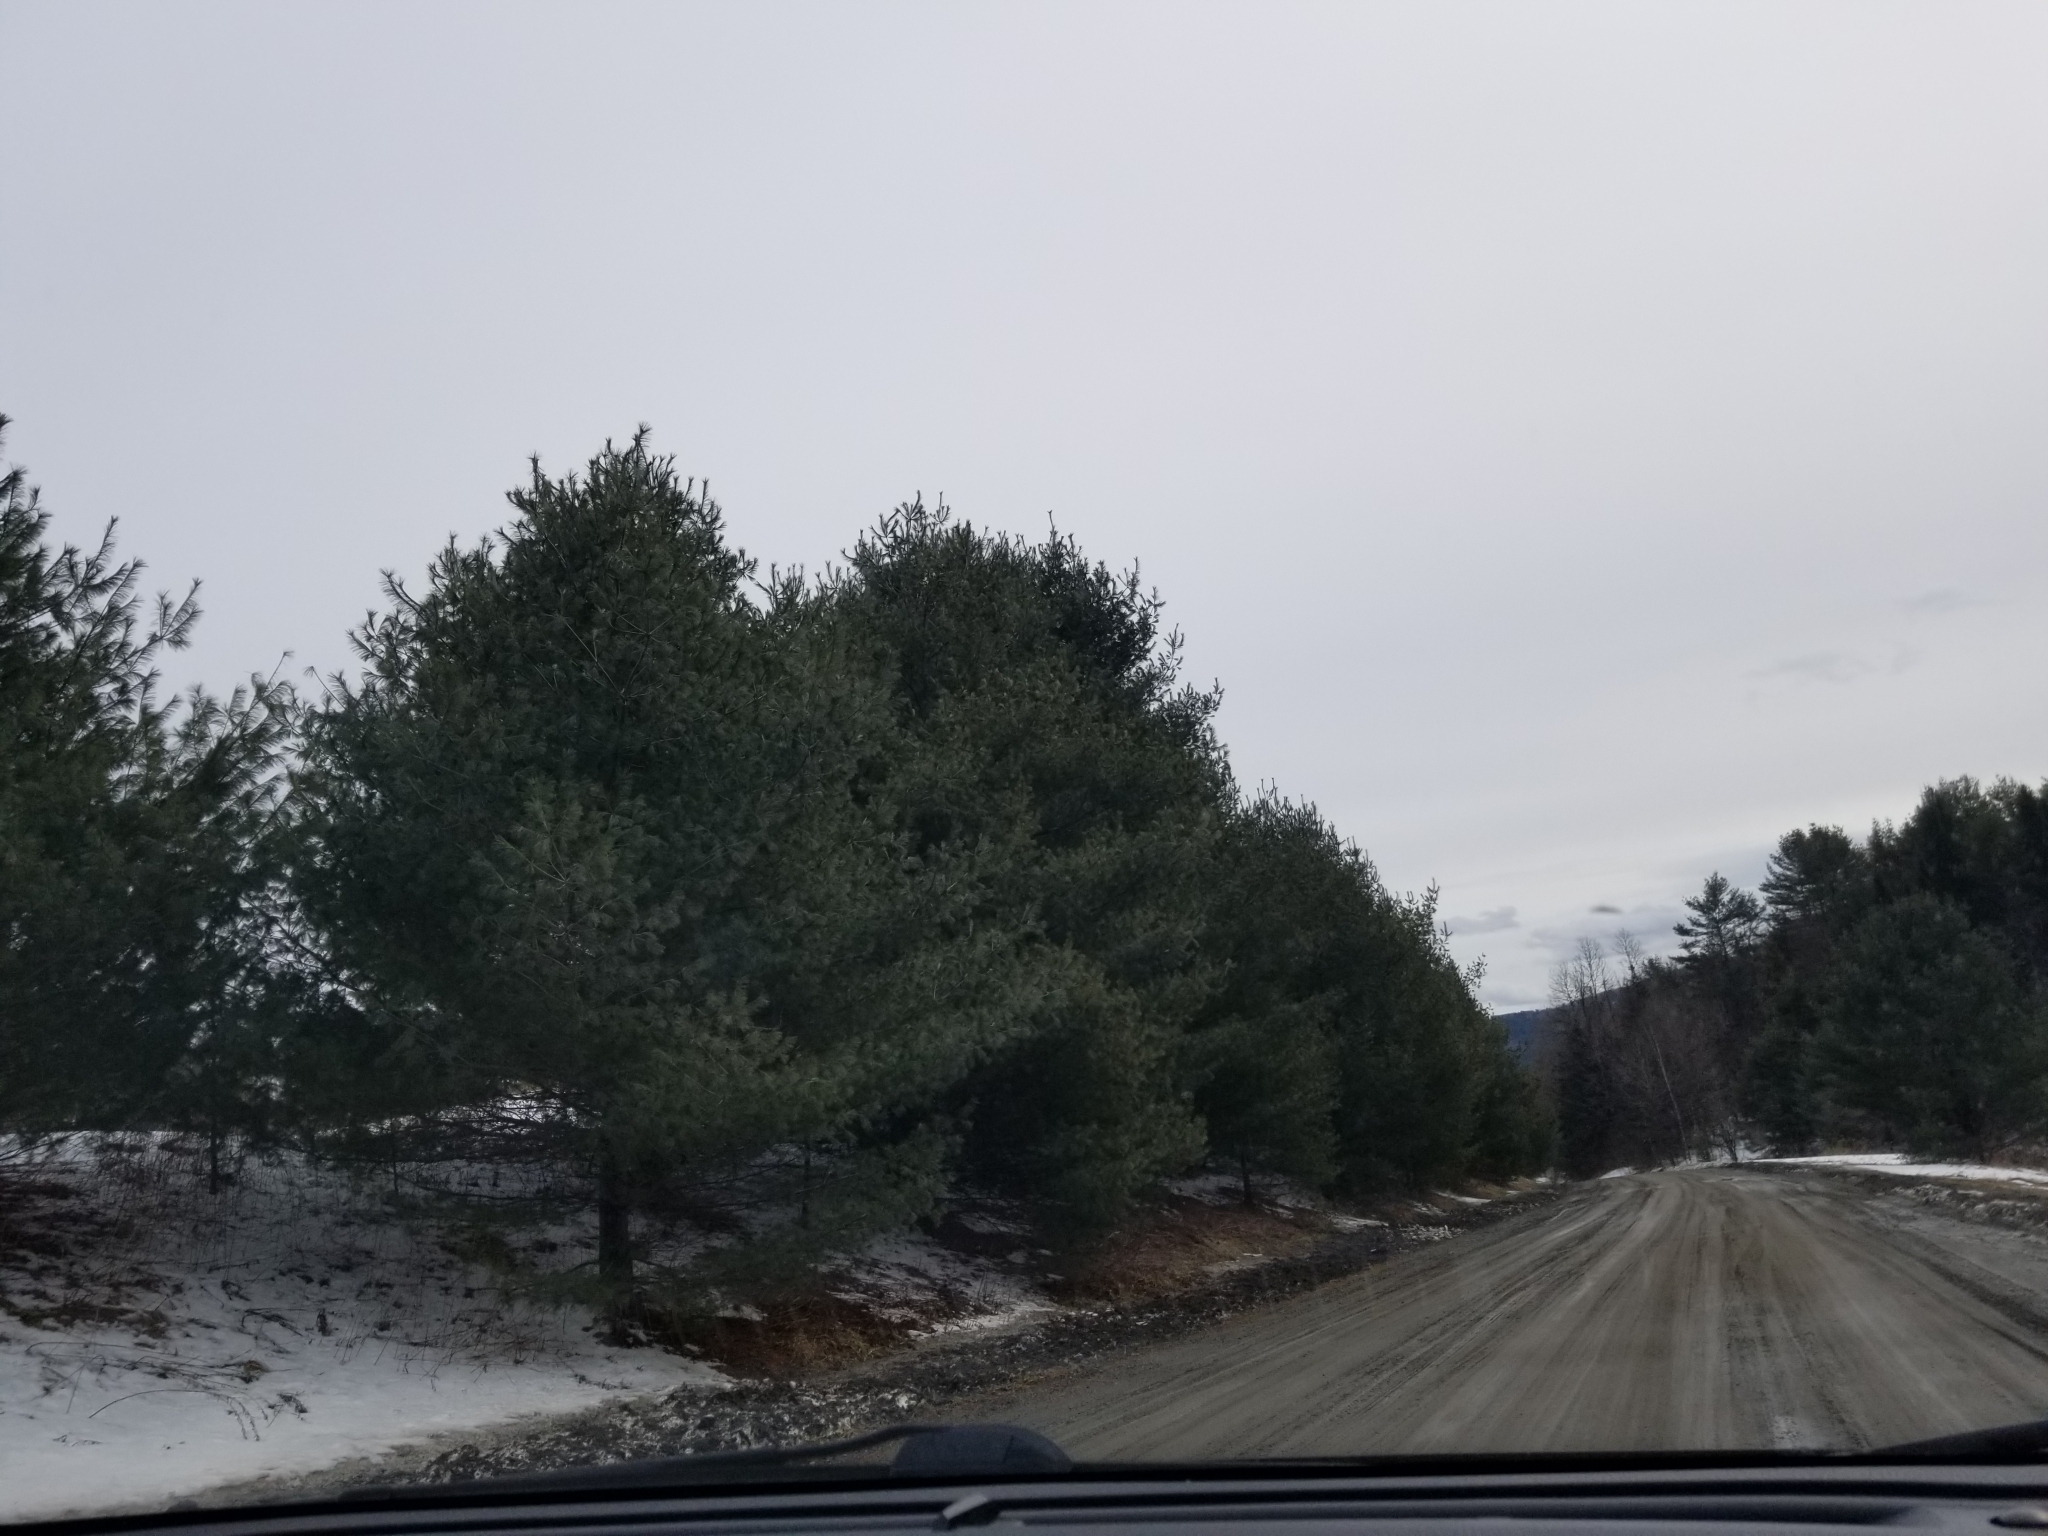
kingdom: Plantae
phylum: Tracheophyta
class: Pinopsida
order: Pinales
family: Pinaceae
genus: Pinus
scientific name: Pinus strobus
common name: Weymouth pine
